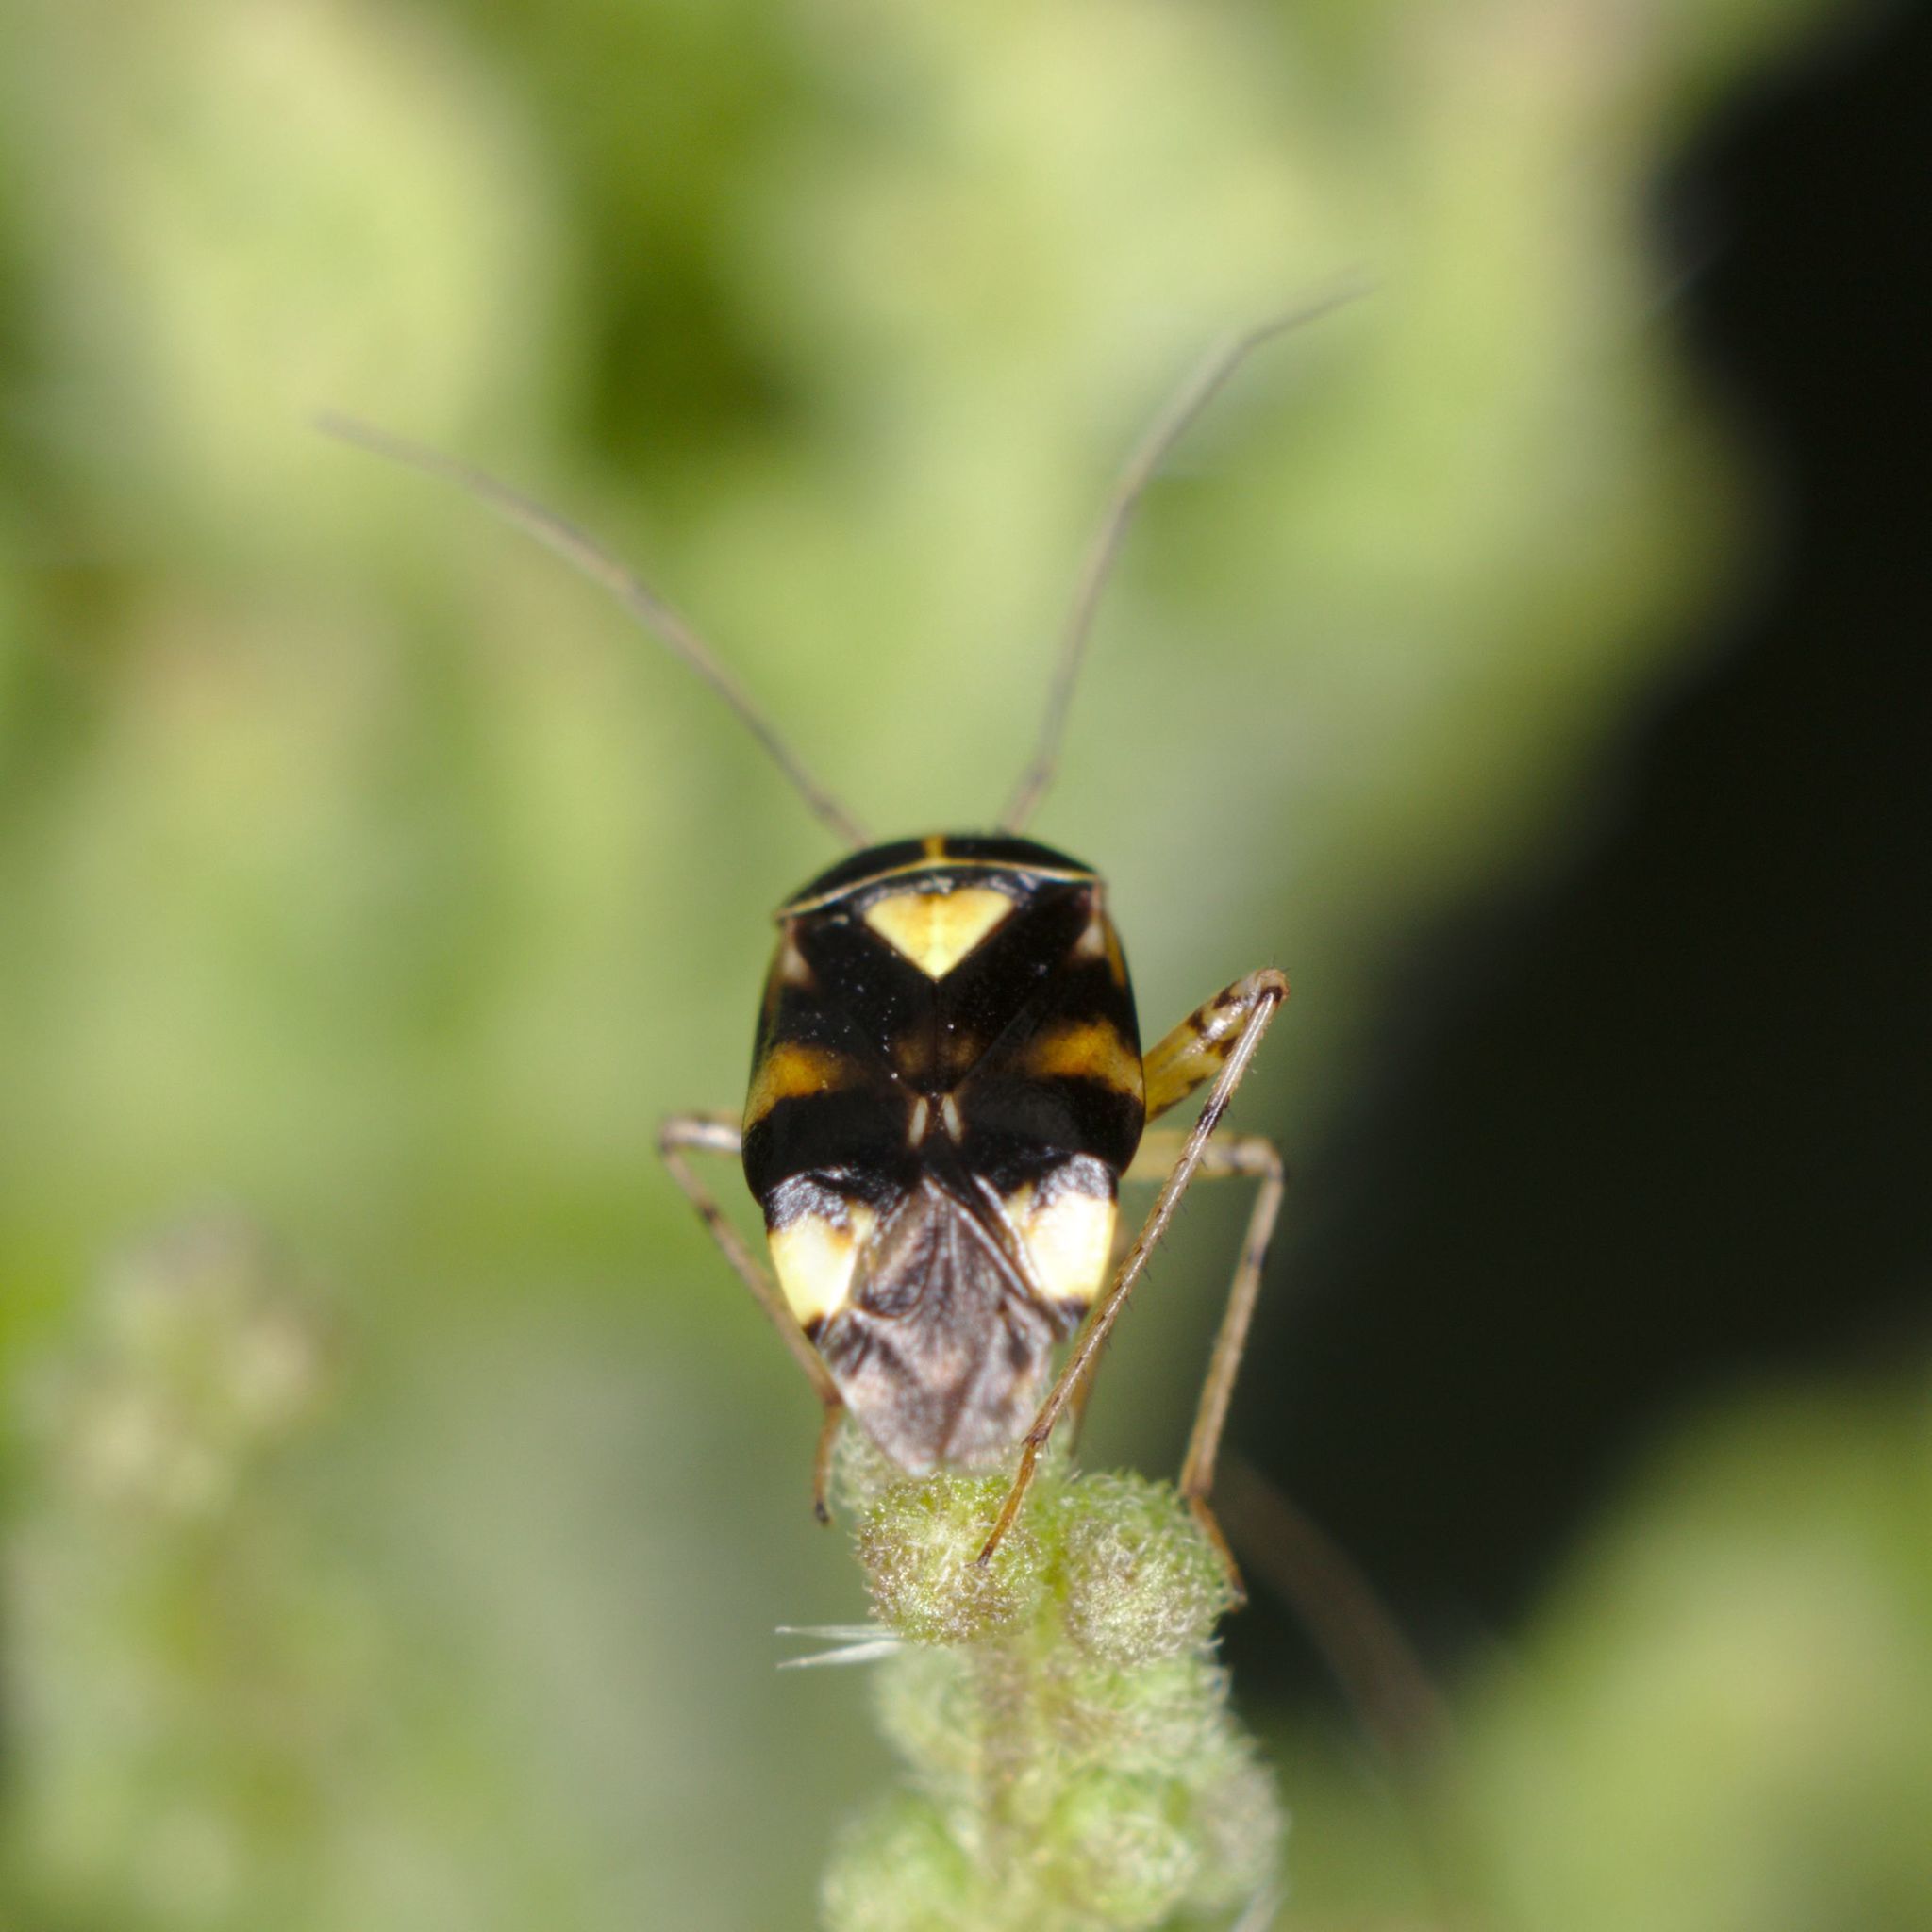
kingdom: Animalia
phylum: Arthropoda
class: Insecta
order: Hemiptera
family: Miridae
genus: Liocoris
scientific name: Liocoris tripustulatus
